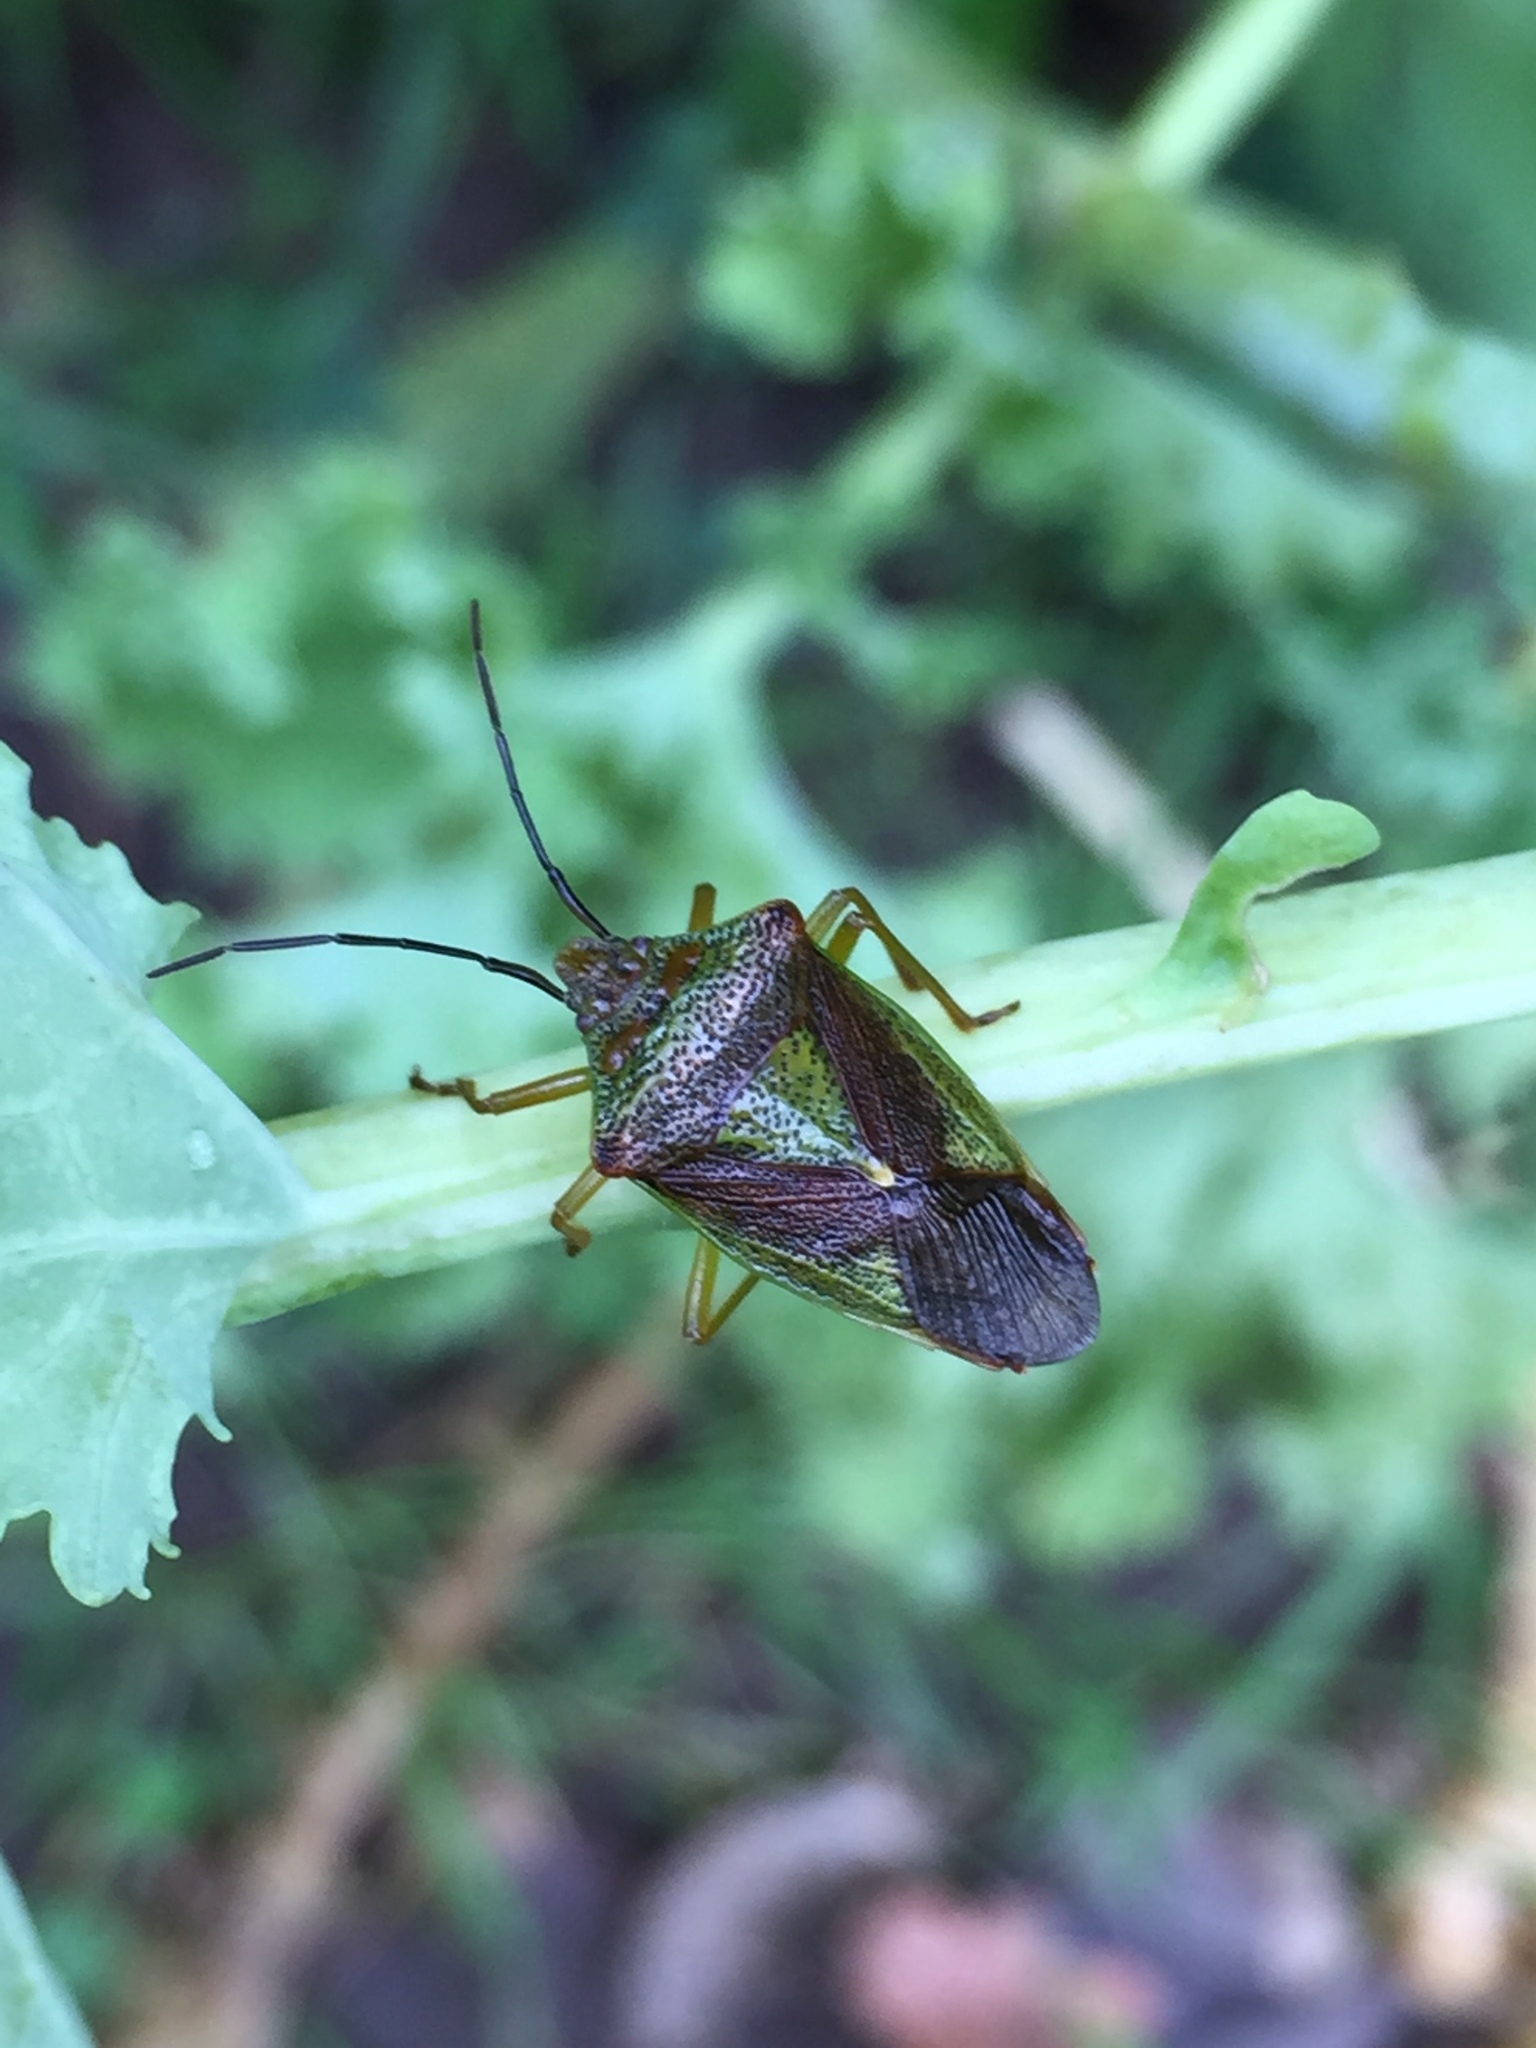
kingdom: Animalia
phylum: Arthropoda
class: Insecta
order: Hemiptera
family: Acanthosomatidae
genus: Acanthosoma
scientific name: Acanthosoma haemorrhoidale
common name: Hawthorn shieldbug
